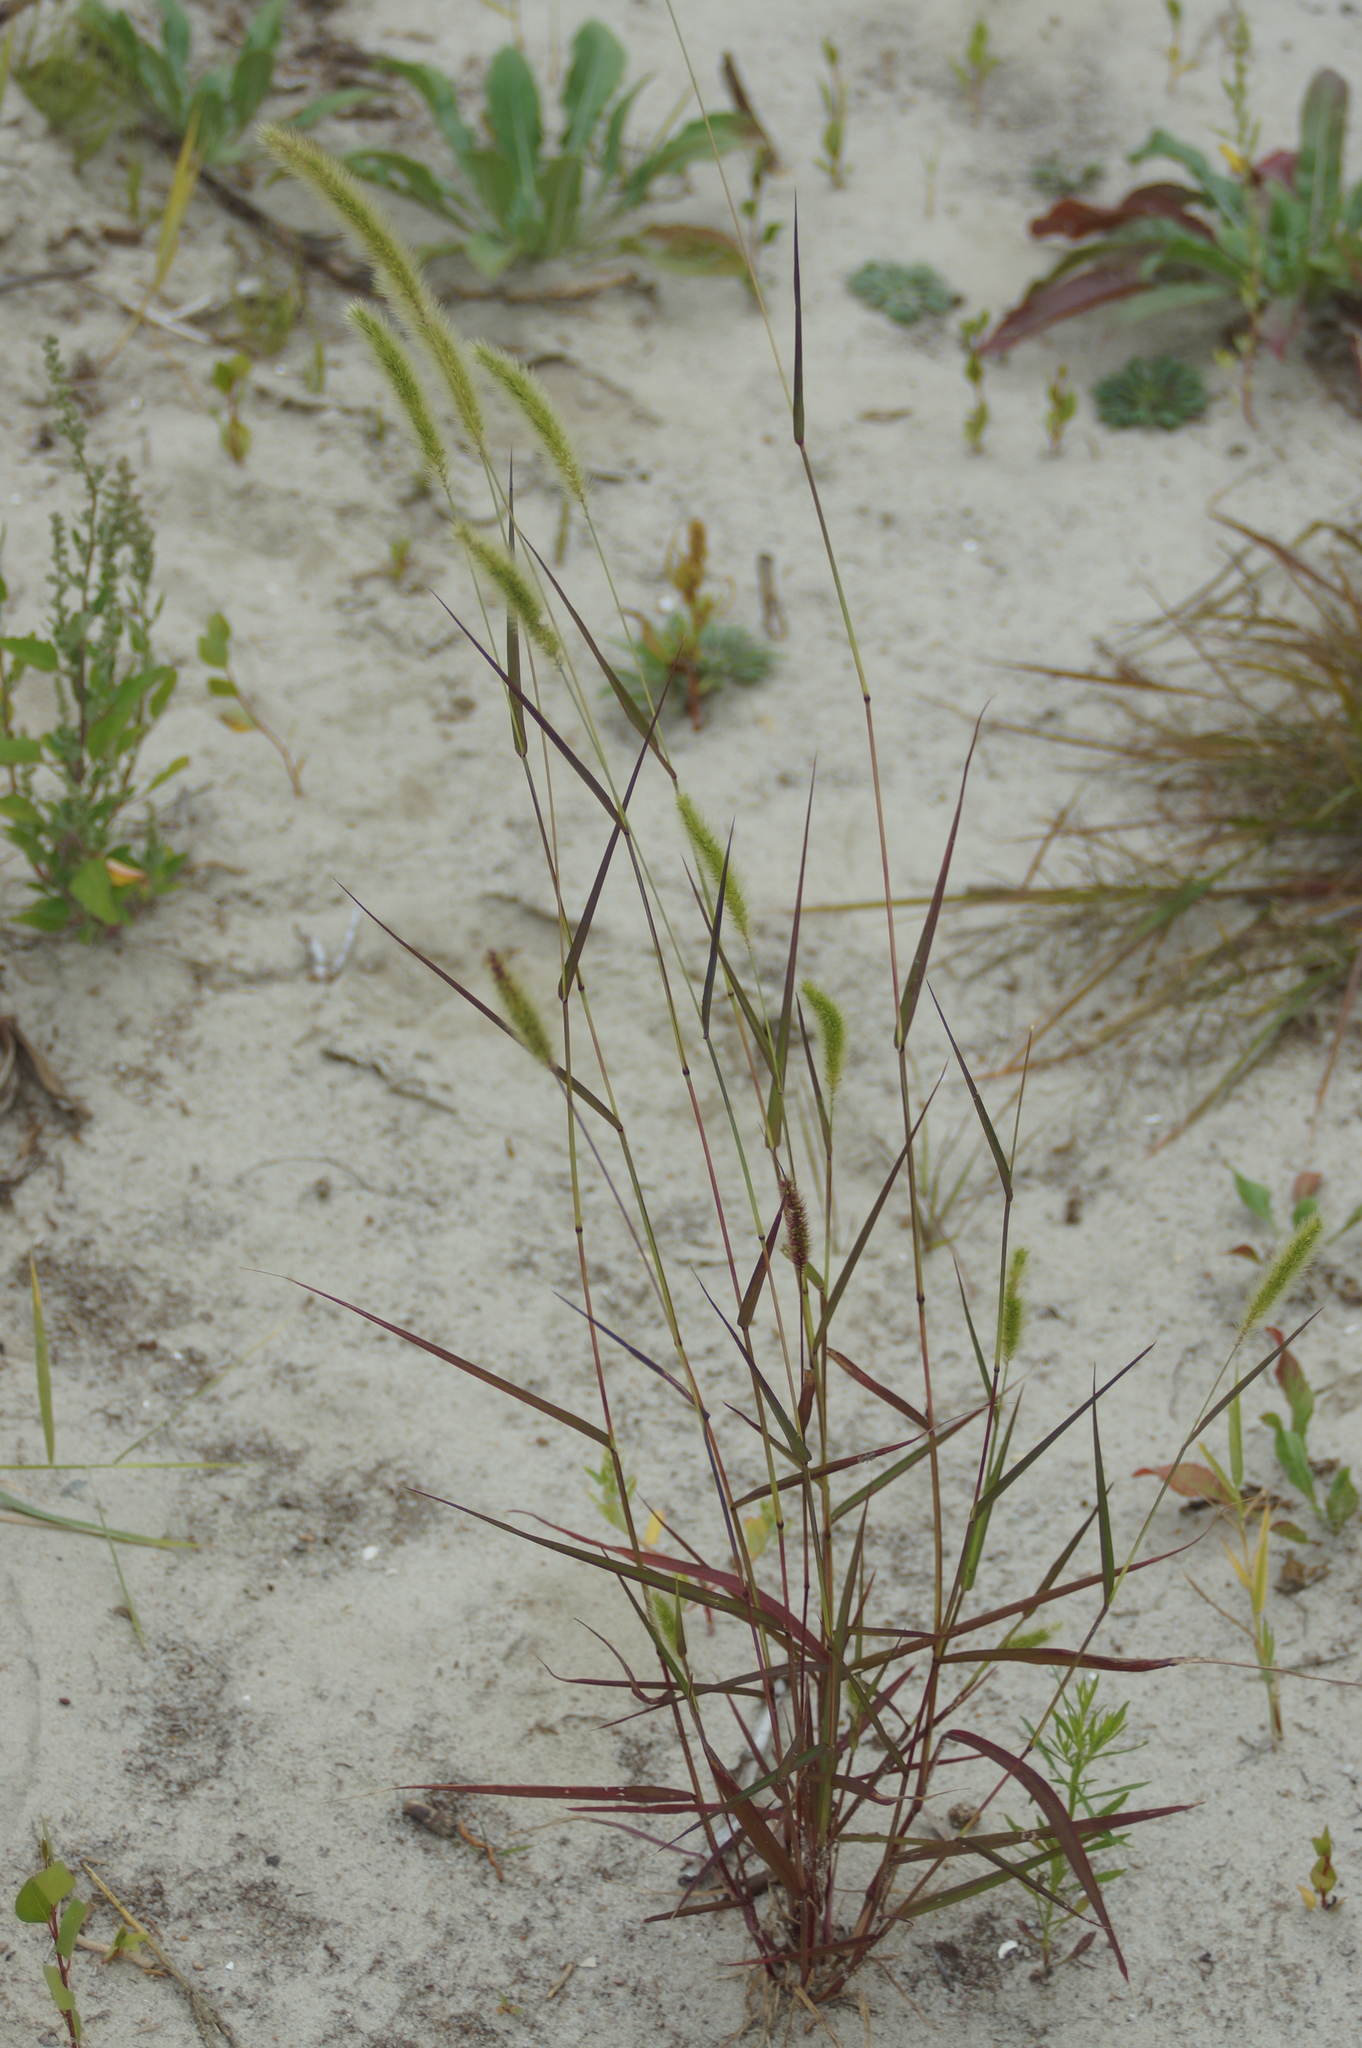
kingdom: Plantae
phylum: Tracheophyta
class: Liliopsida
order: Poales
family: Poaceae
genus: Setaria
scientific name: Setaria viridis
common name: Green bristlegrass
